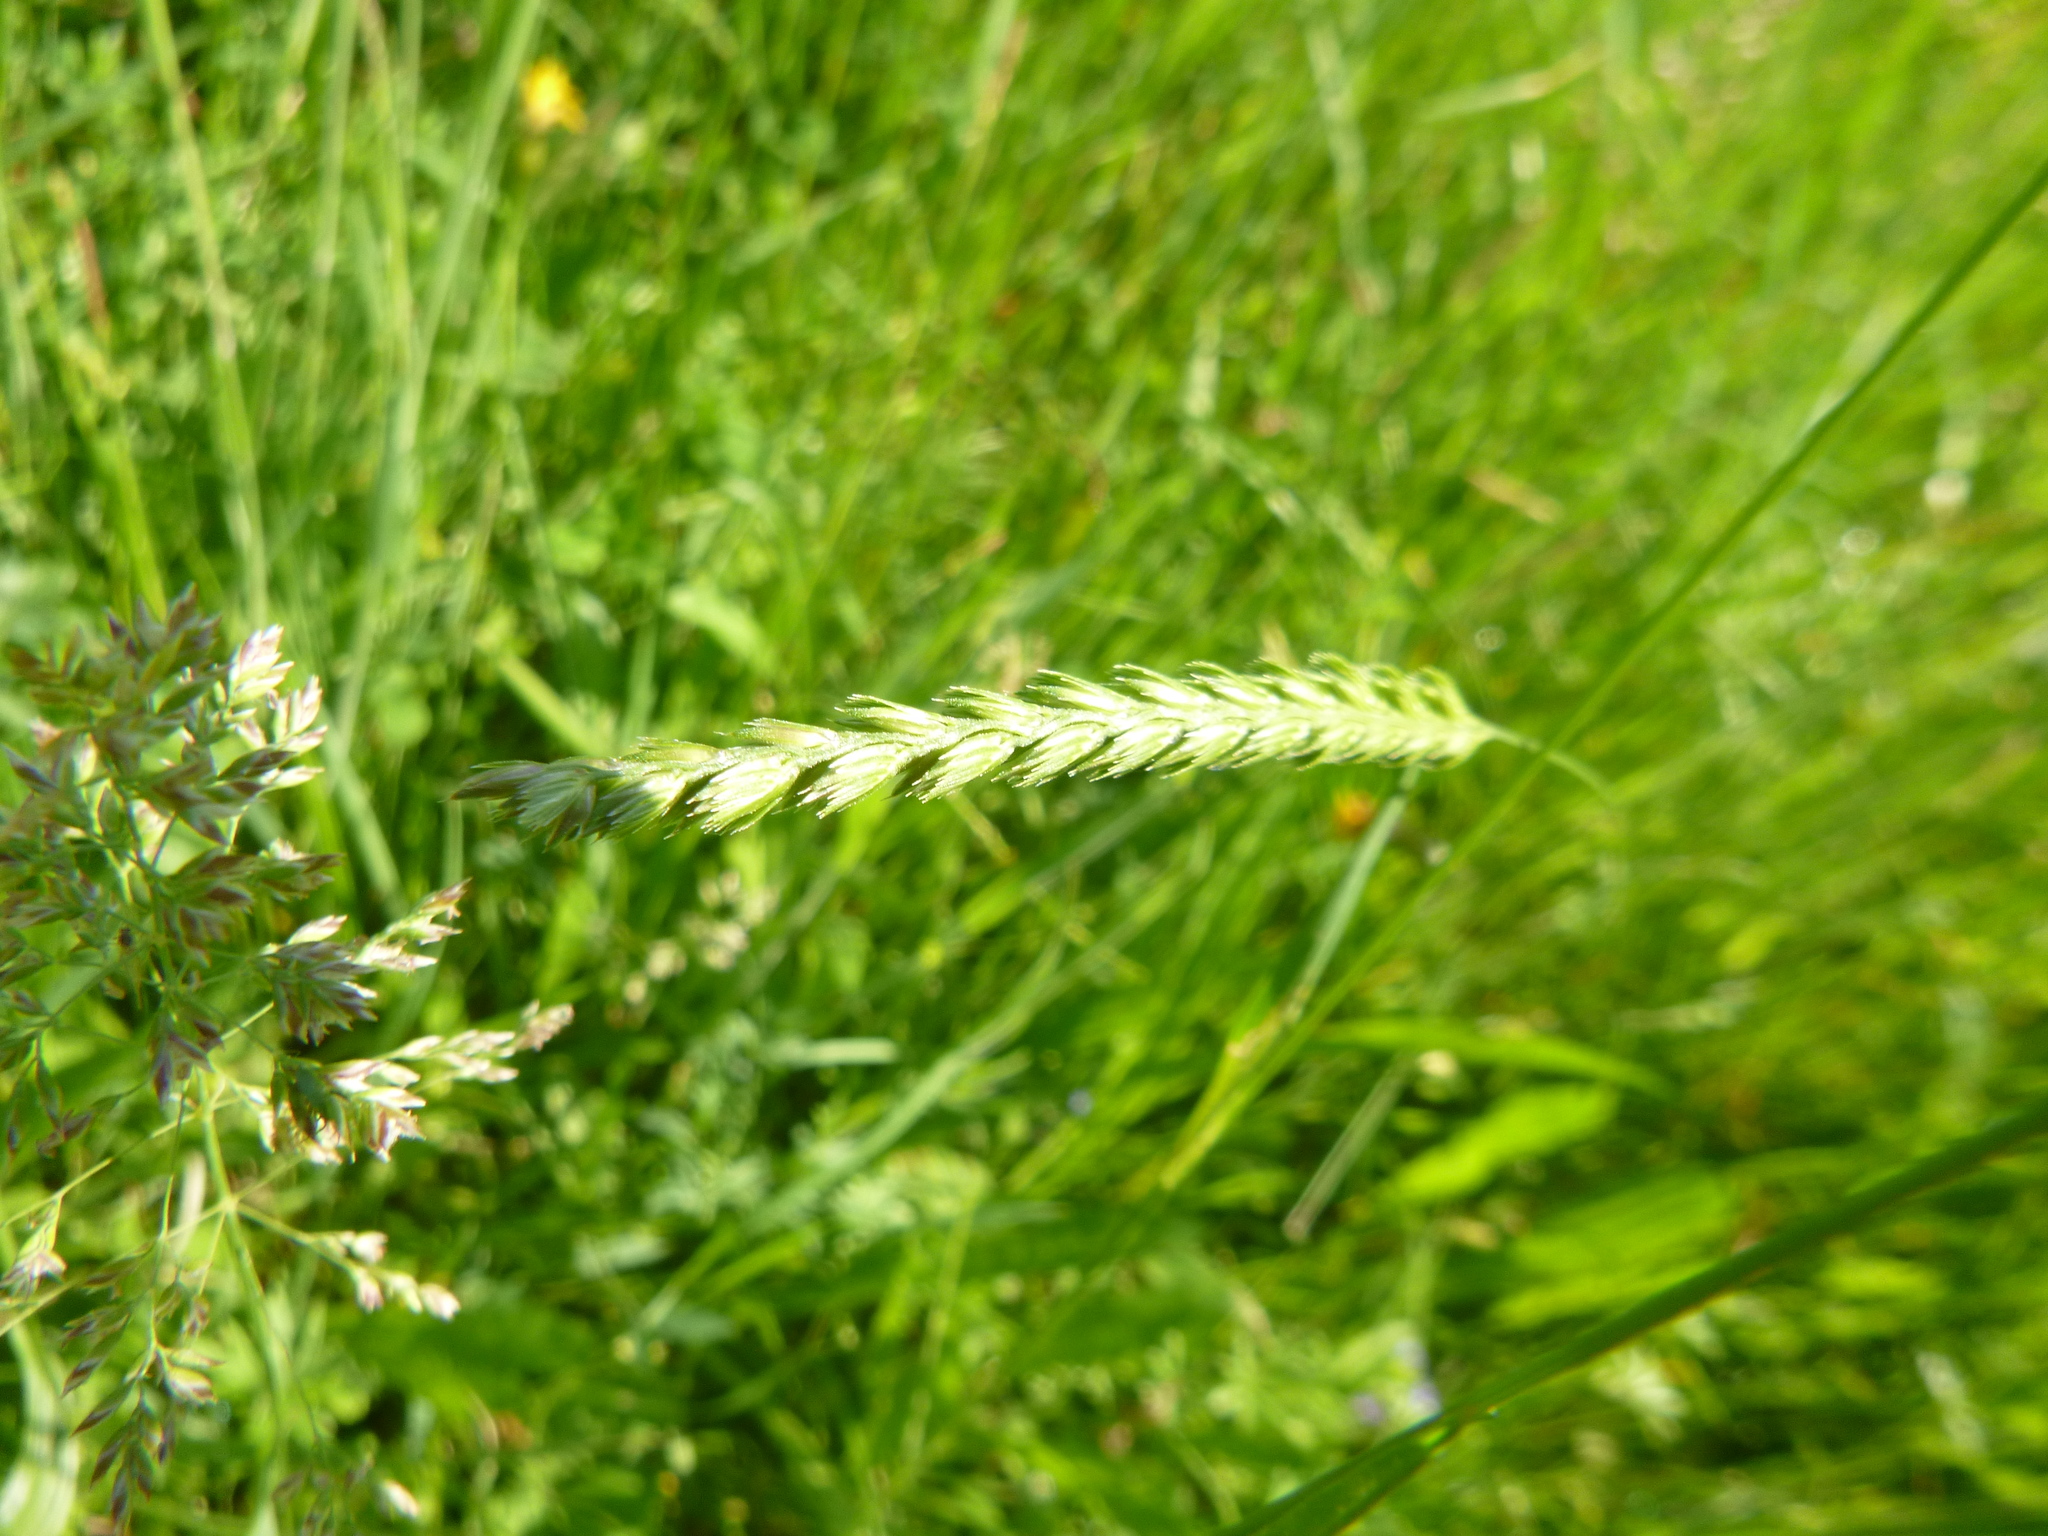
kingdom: Plantae
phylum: Tracheophyta
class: Liliopsida
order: Poales
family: Poaceae
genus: Cynosurus
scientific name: Cynosurus cristatus
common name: Crested dog's-tail
